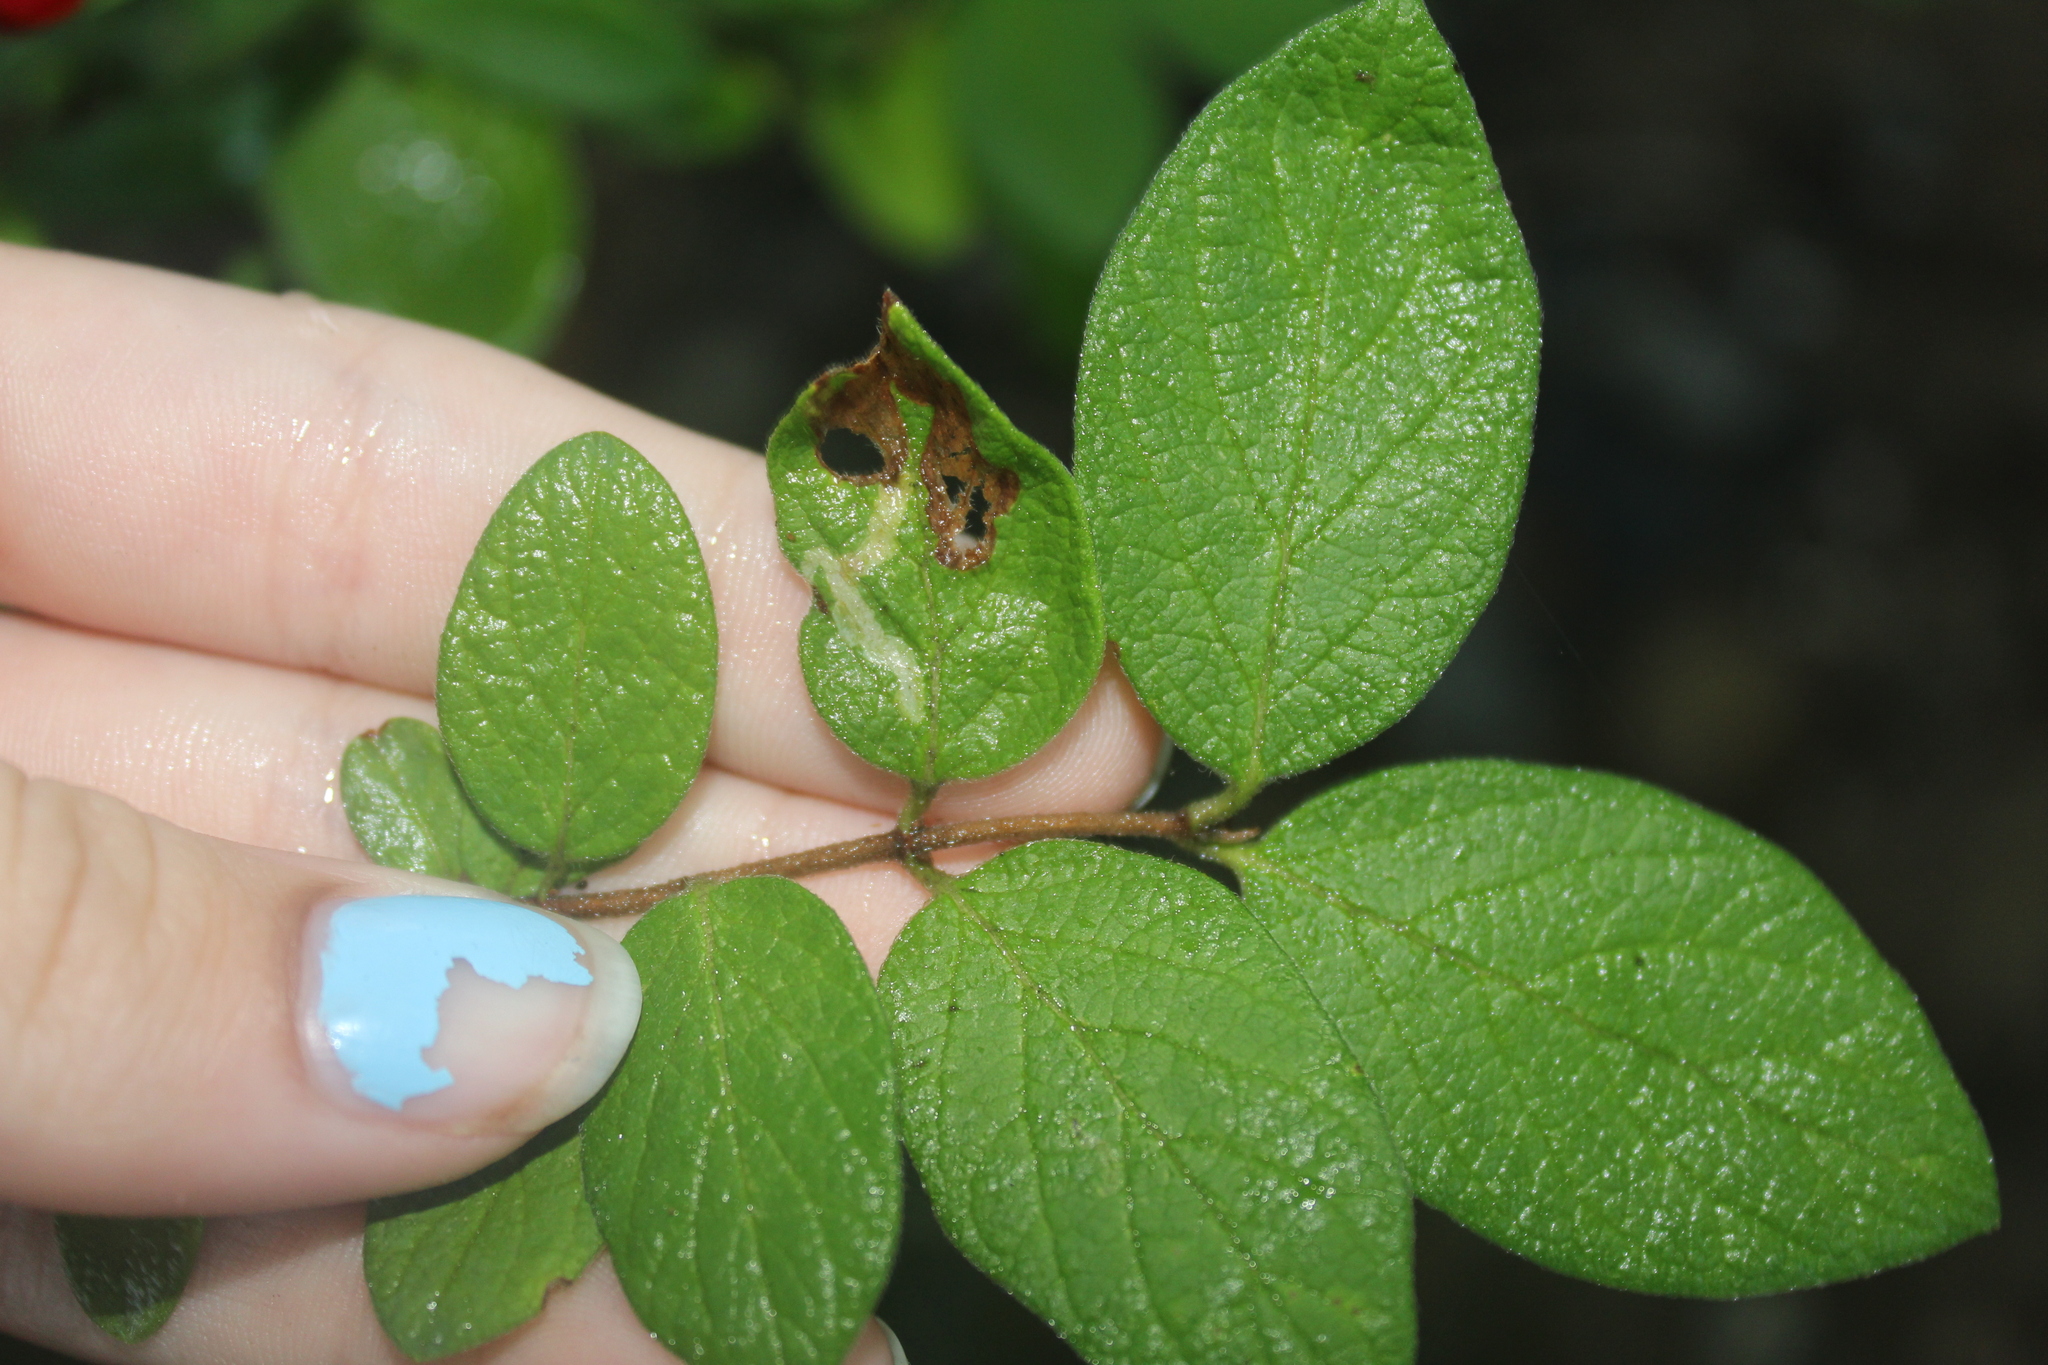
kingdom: Animalia
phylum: Arthropoda
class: Insecta
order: Diptera
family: Agromyzidae
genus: Aulagromyza
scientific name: Aulagromyza luteoscutellata
